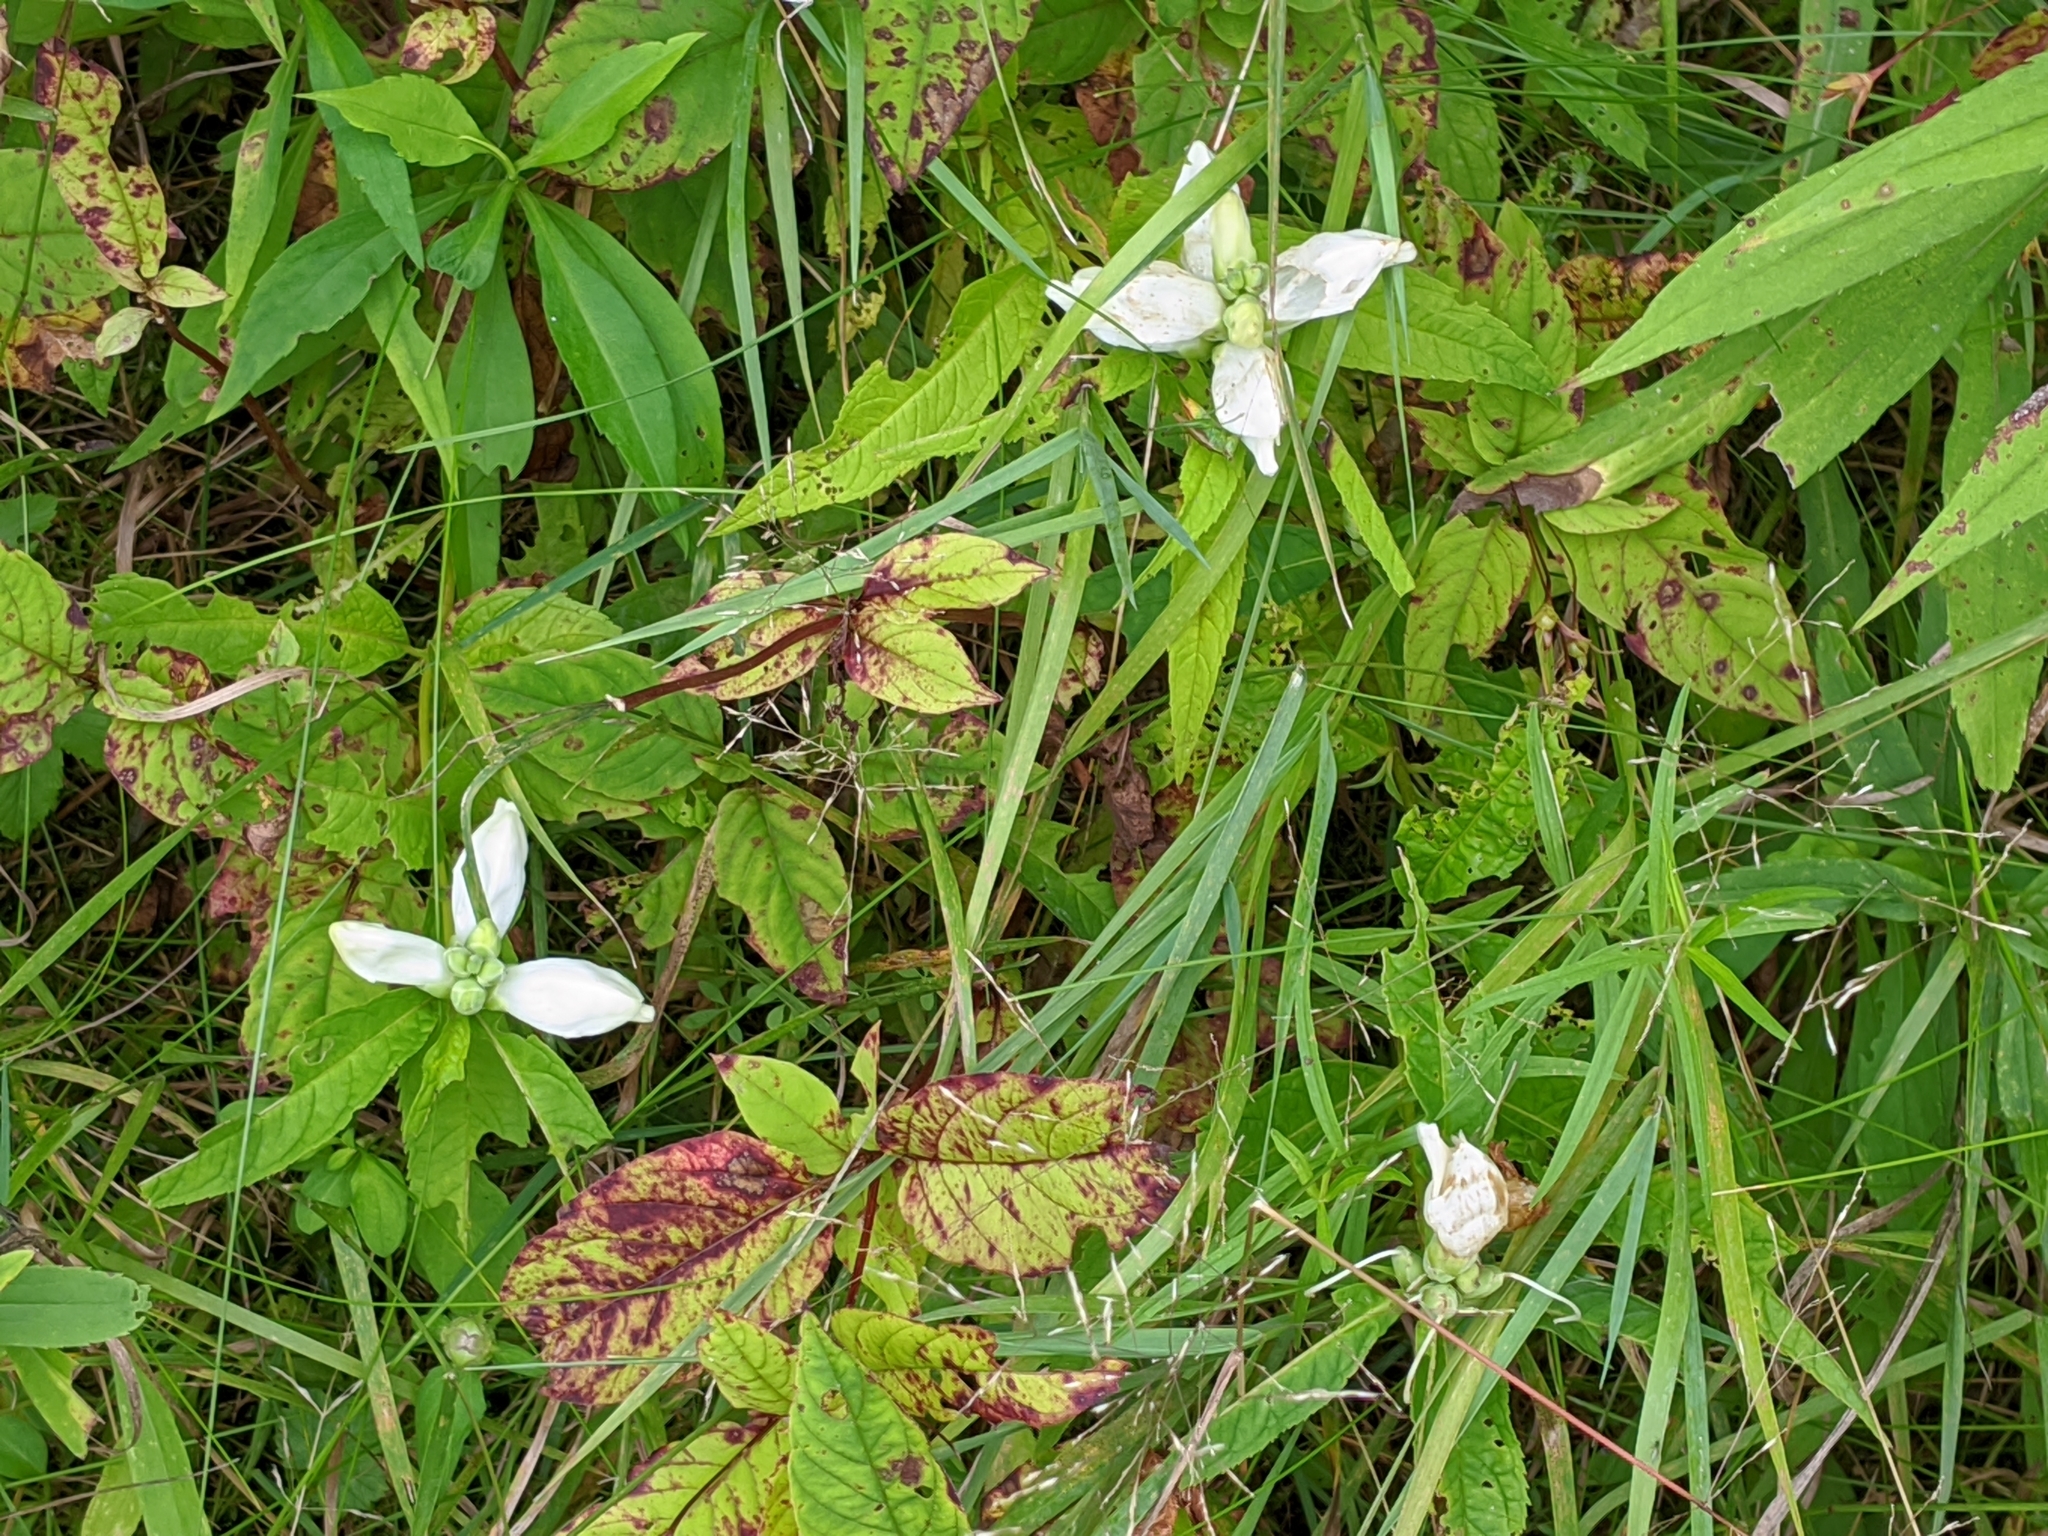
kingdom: Plantae
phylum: Tracheophyta
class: Magnoliopsida
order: Lamiales
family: Plantaginaceae
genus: Chelone
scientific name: Chelone glabra
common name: Snakehead
